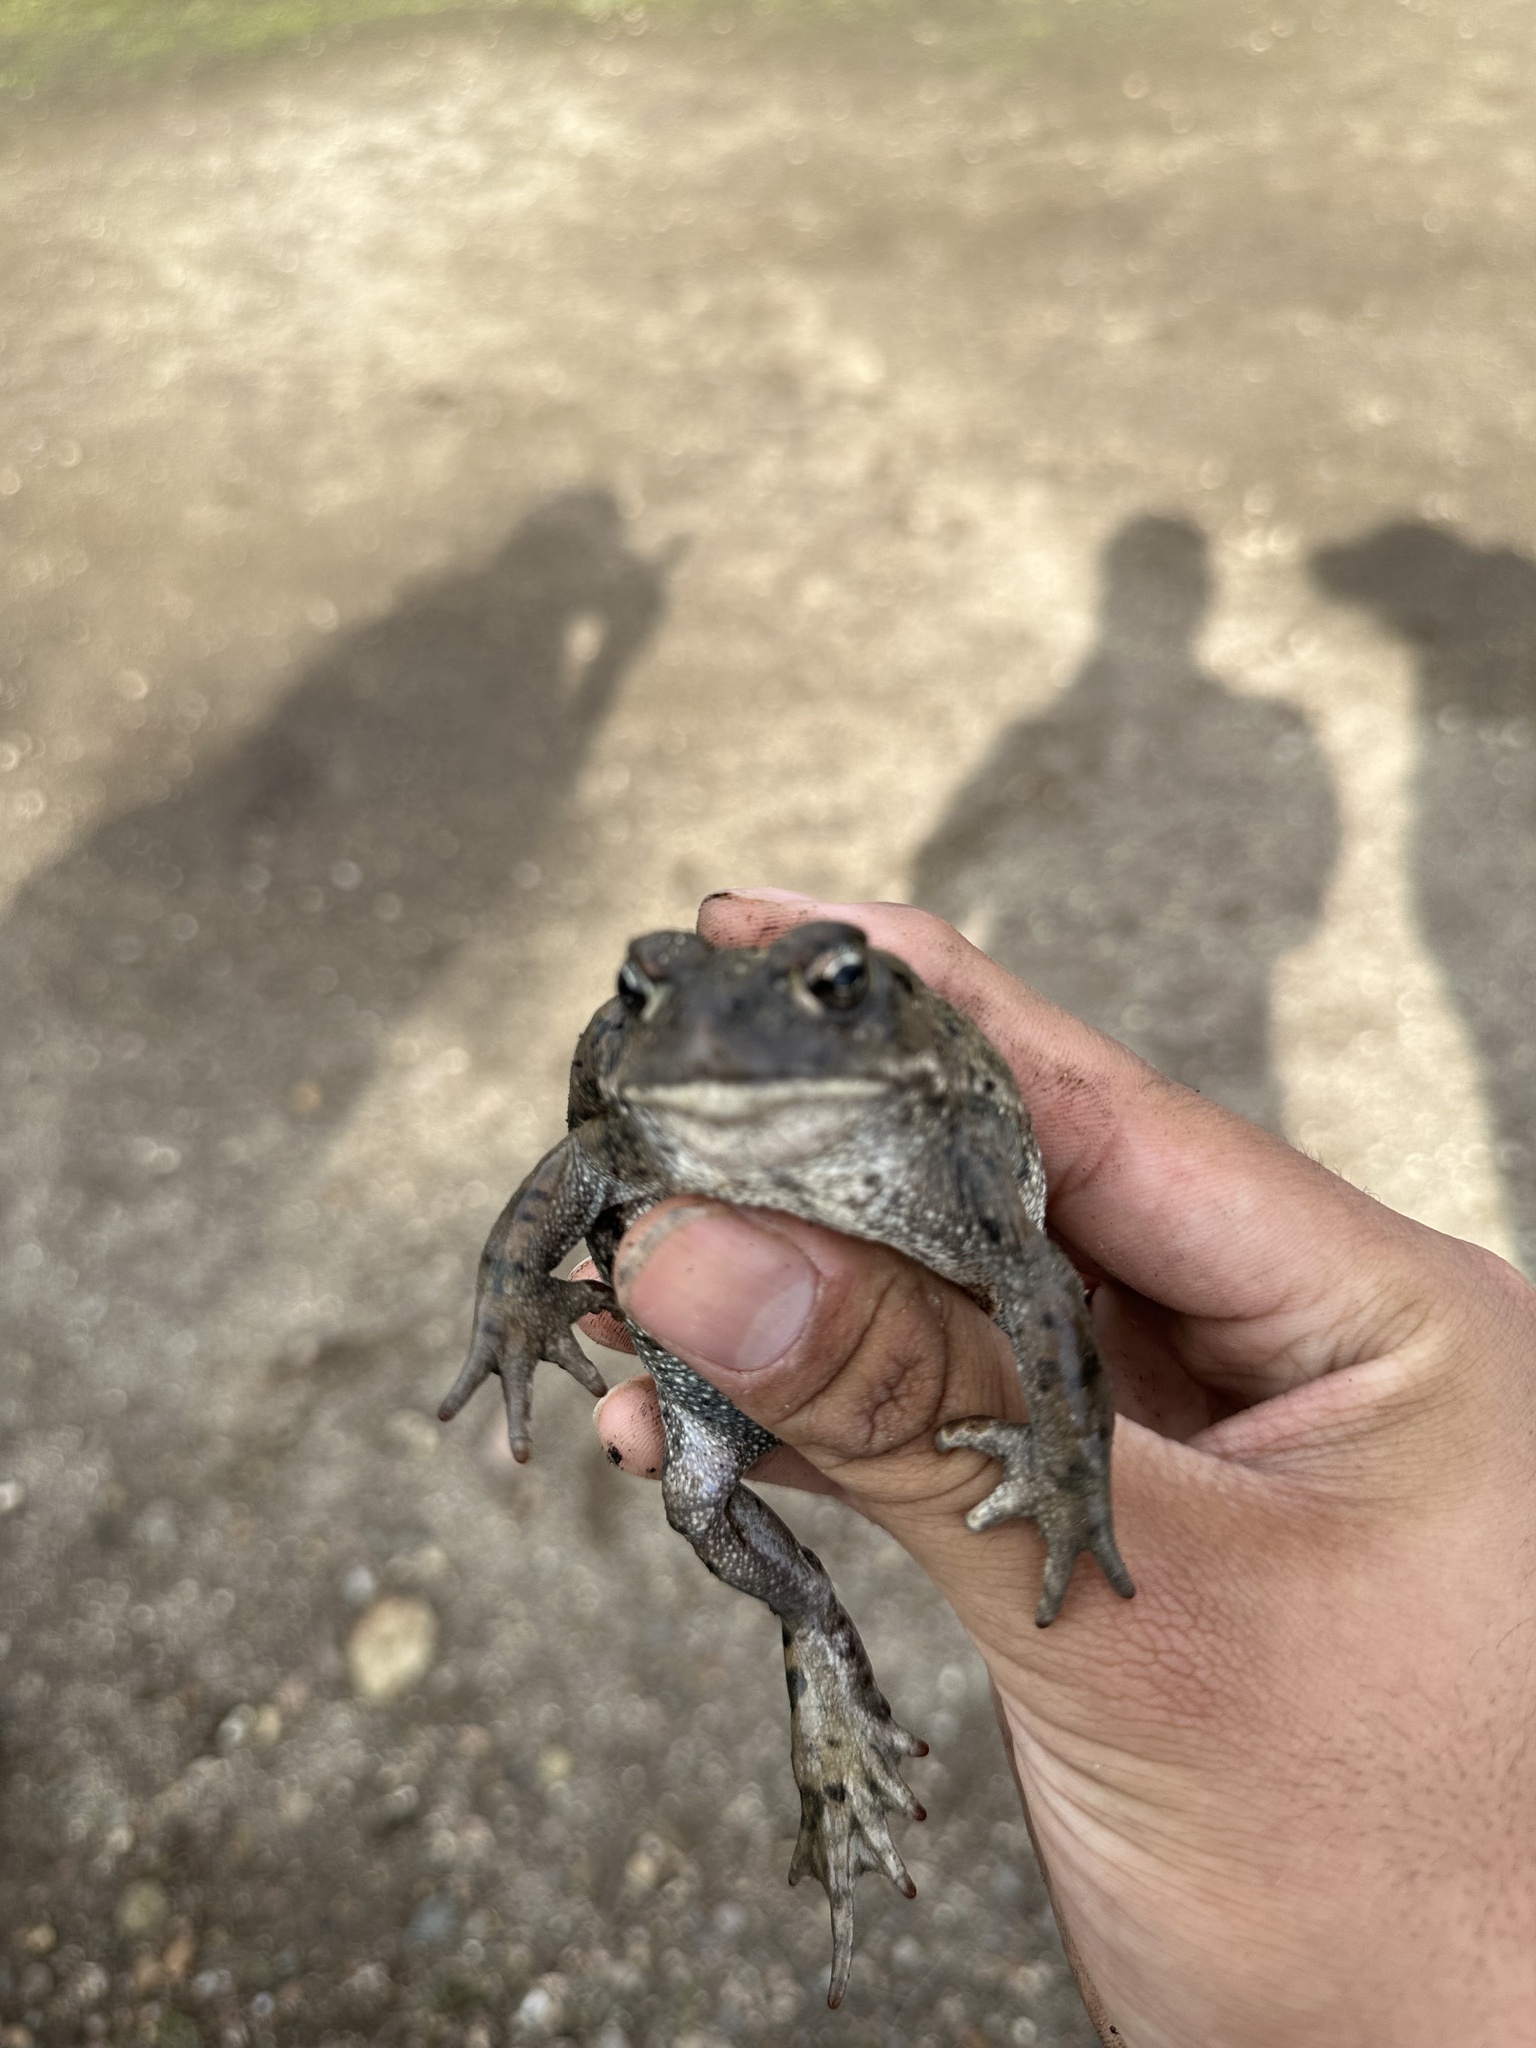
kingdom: Animalia
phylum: Chordata
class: Amphibia
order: Anura
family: Bufonidae
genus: Anaxyrus
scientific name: Anaxyrus boreas
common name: Western toad
